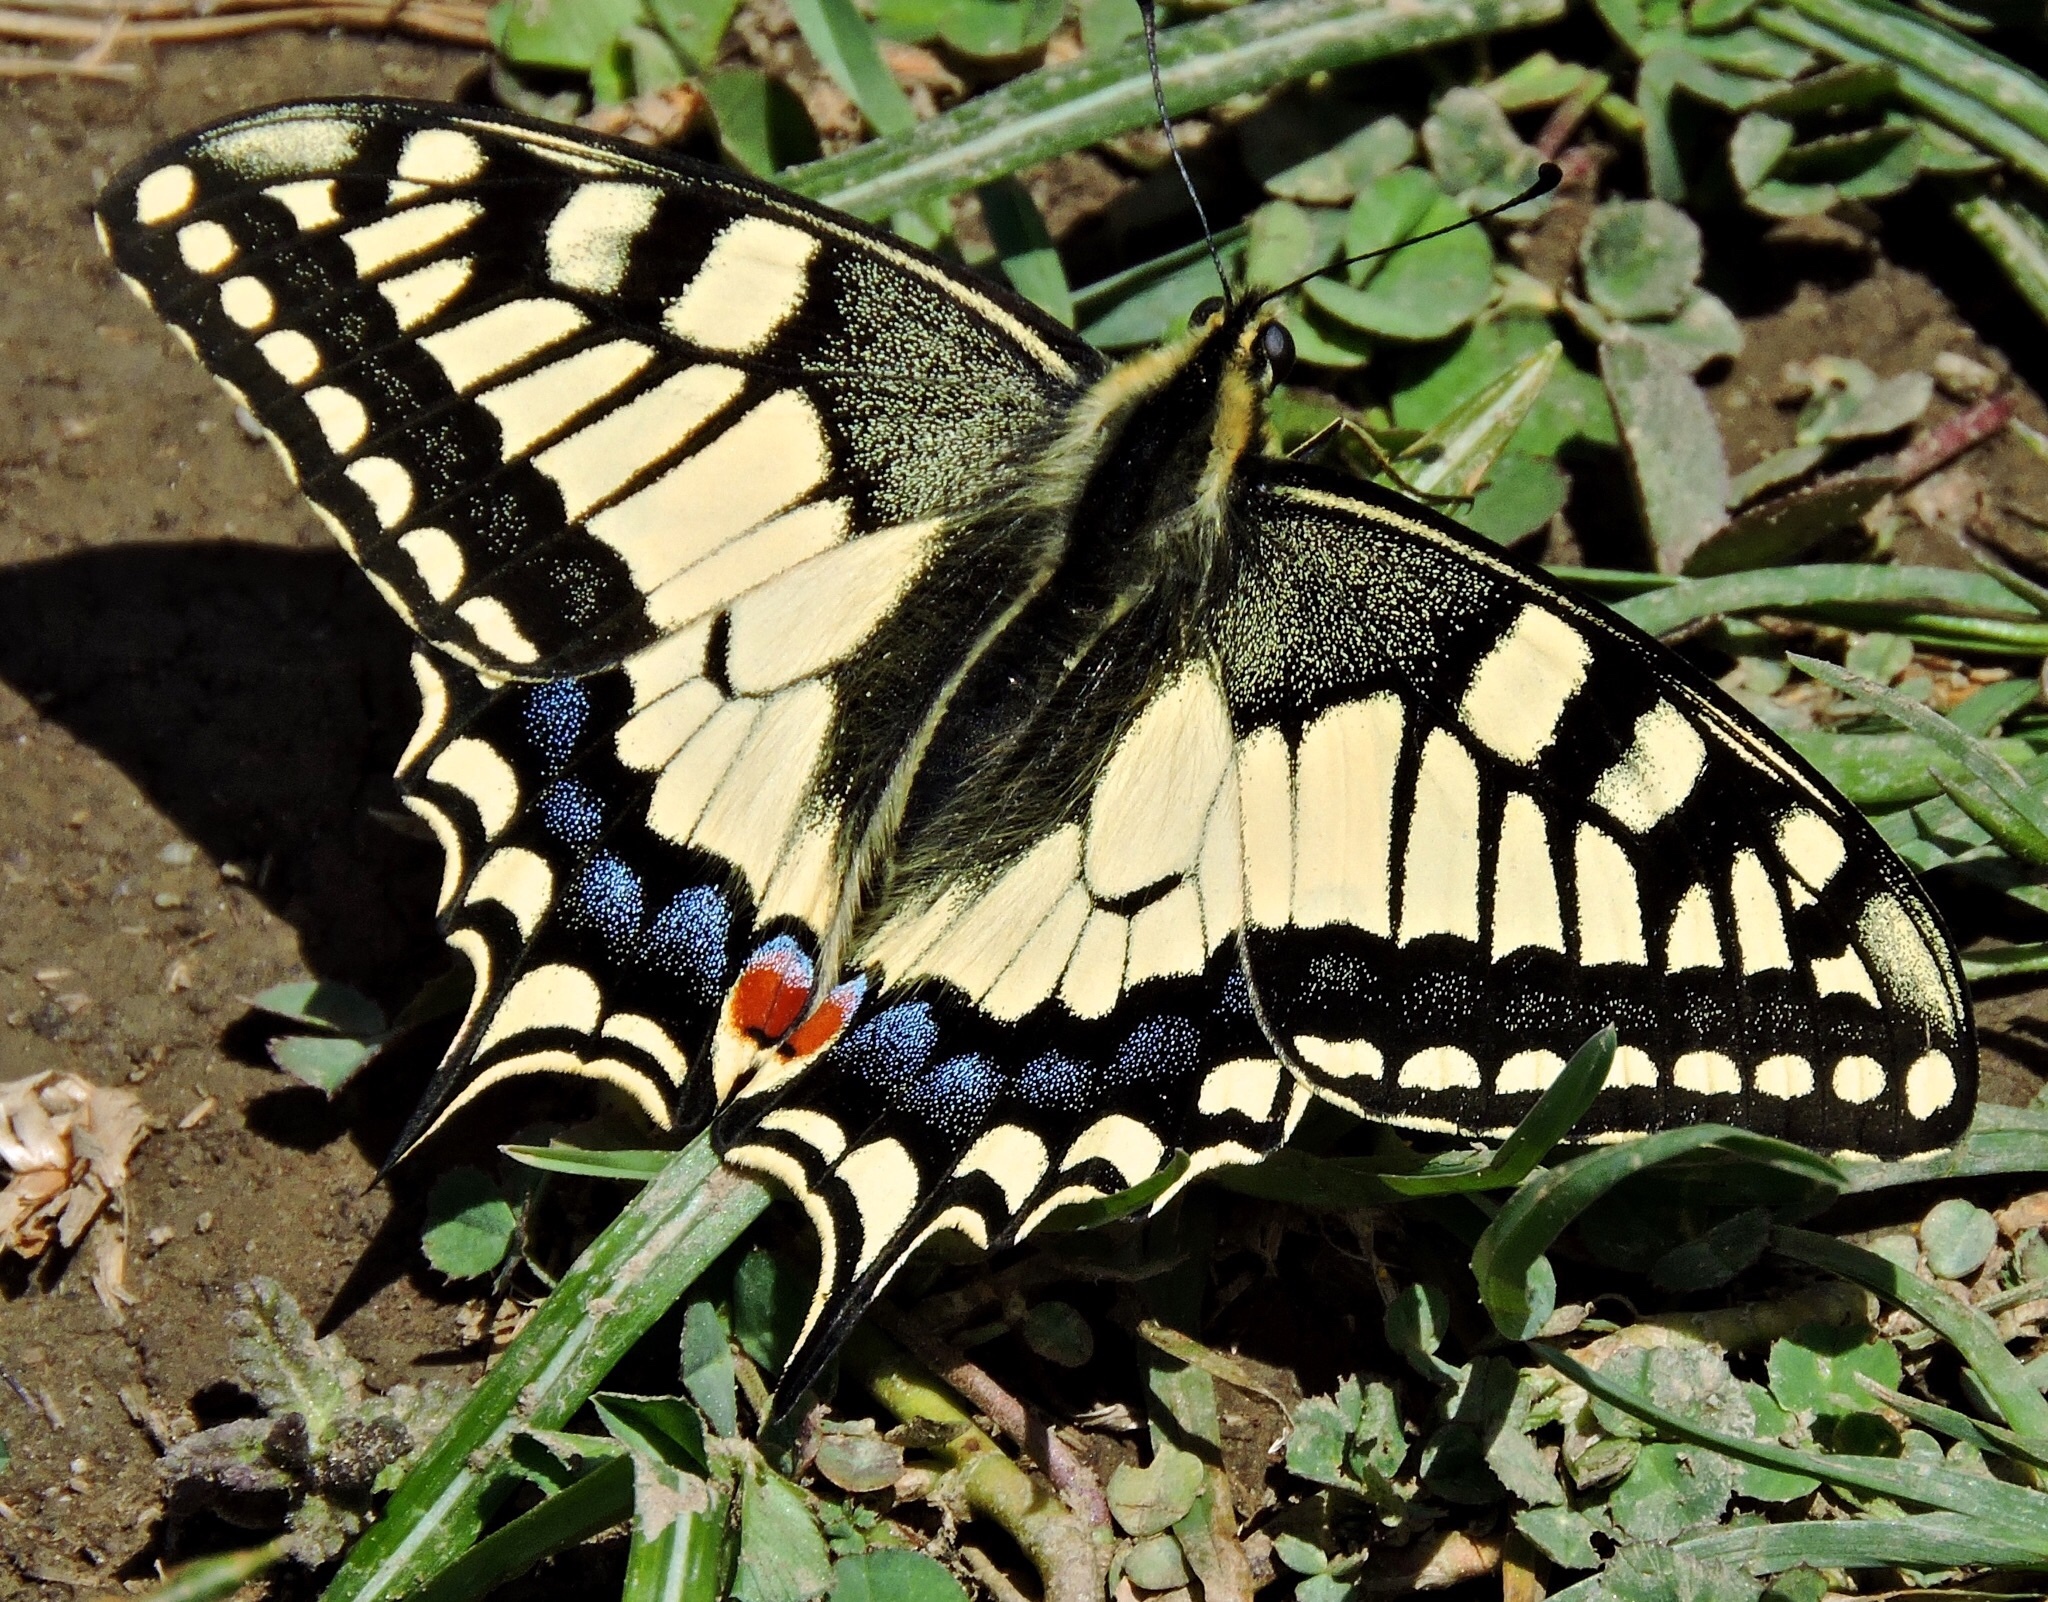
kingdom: Animalia
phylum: Arthropoda
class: Insecta
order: Lepidoptera
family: Papilionidae
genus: Papilio
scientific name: Papilio machaon
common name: Swallowtail
